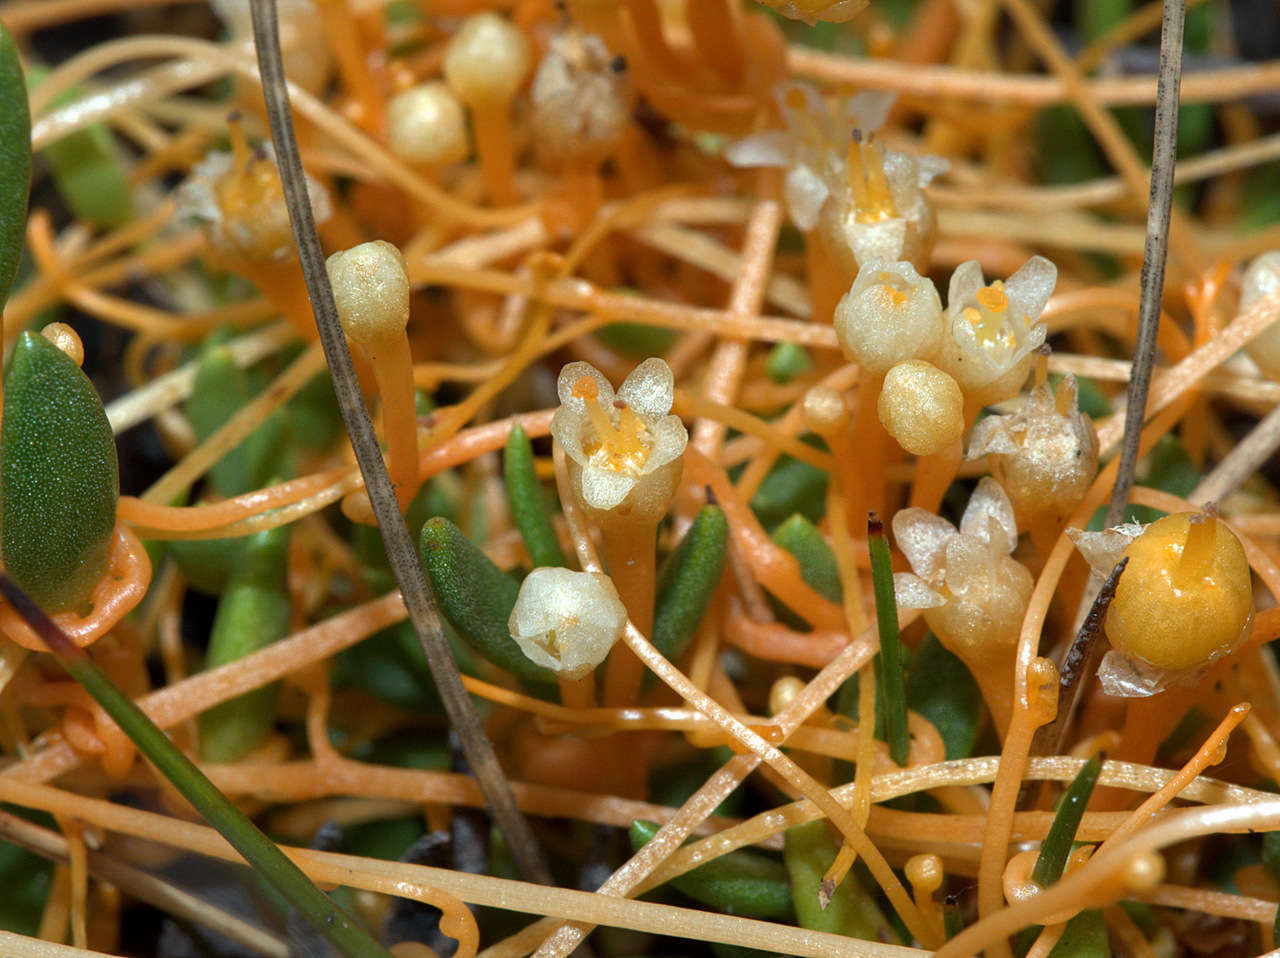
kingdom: Plantae
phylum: Tracheophyta
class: Magnoliopsida
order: Solanales
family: Convolvulaceae
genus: Cuscuta
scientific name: Cuscuta tasmanica
